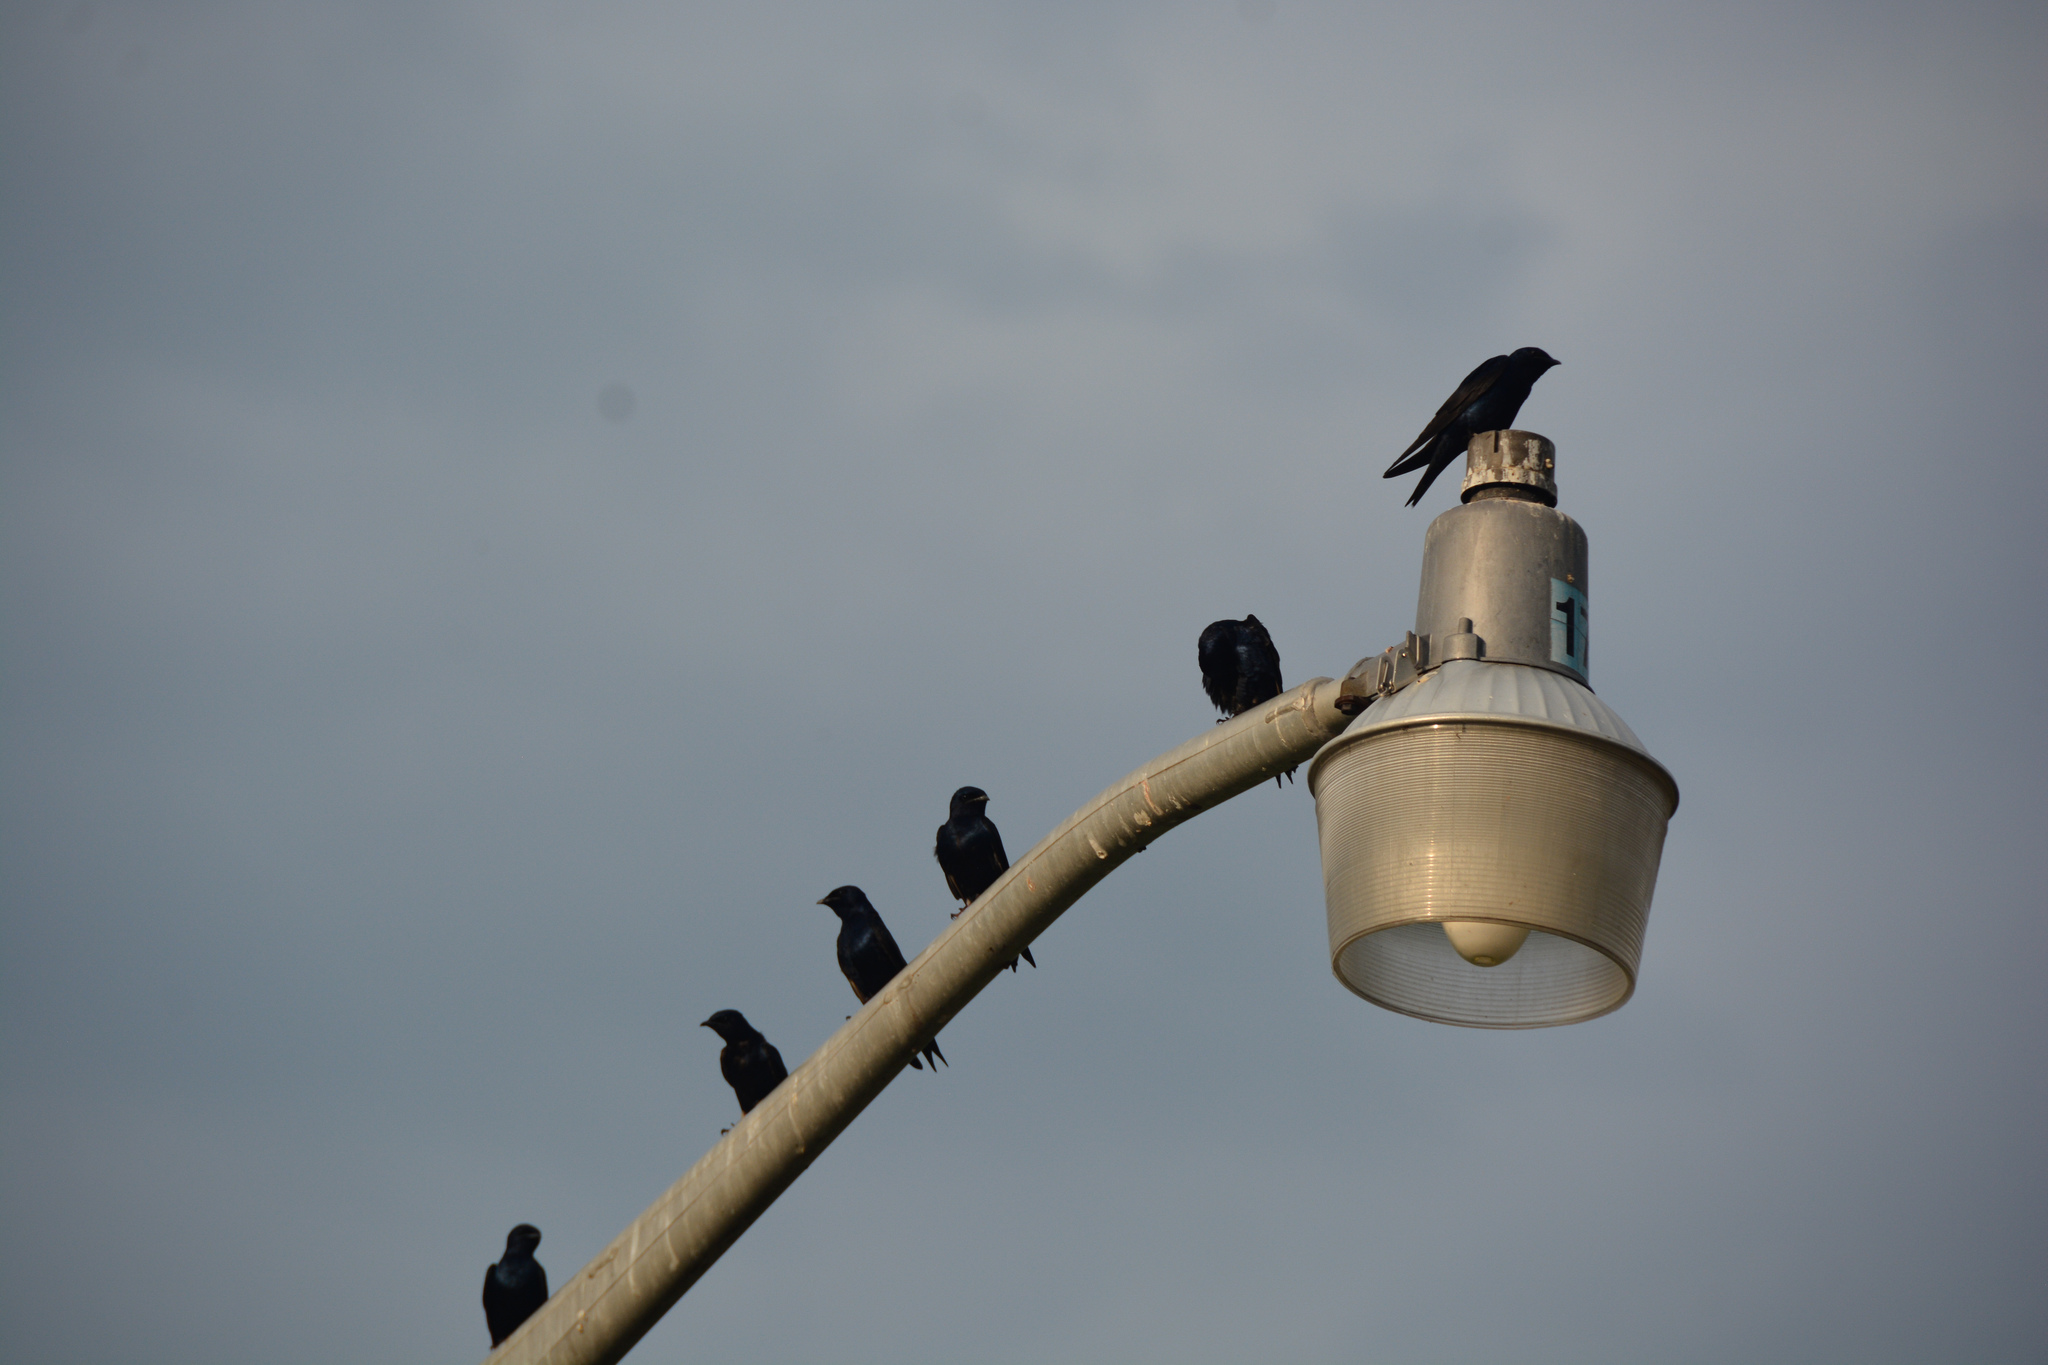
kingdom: Animalia
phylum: Chordata
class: Aves
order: Passeriformes
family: Hirundinidae
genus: Progne
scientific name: Progne subis
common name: Purple martin
